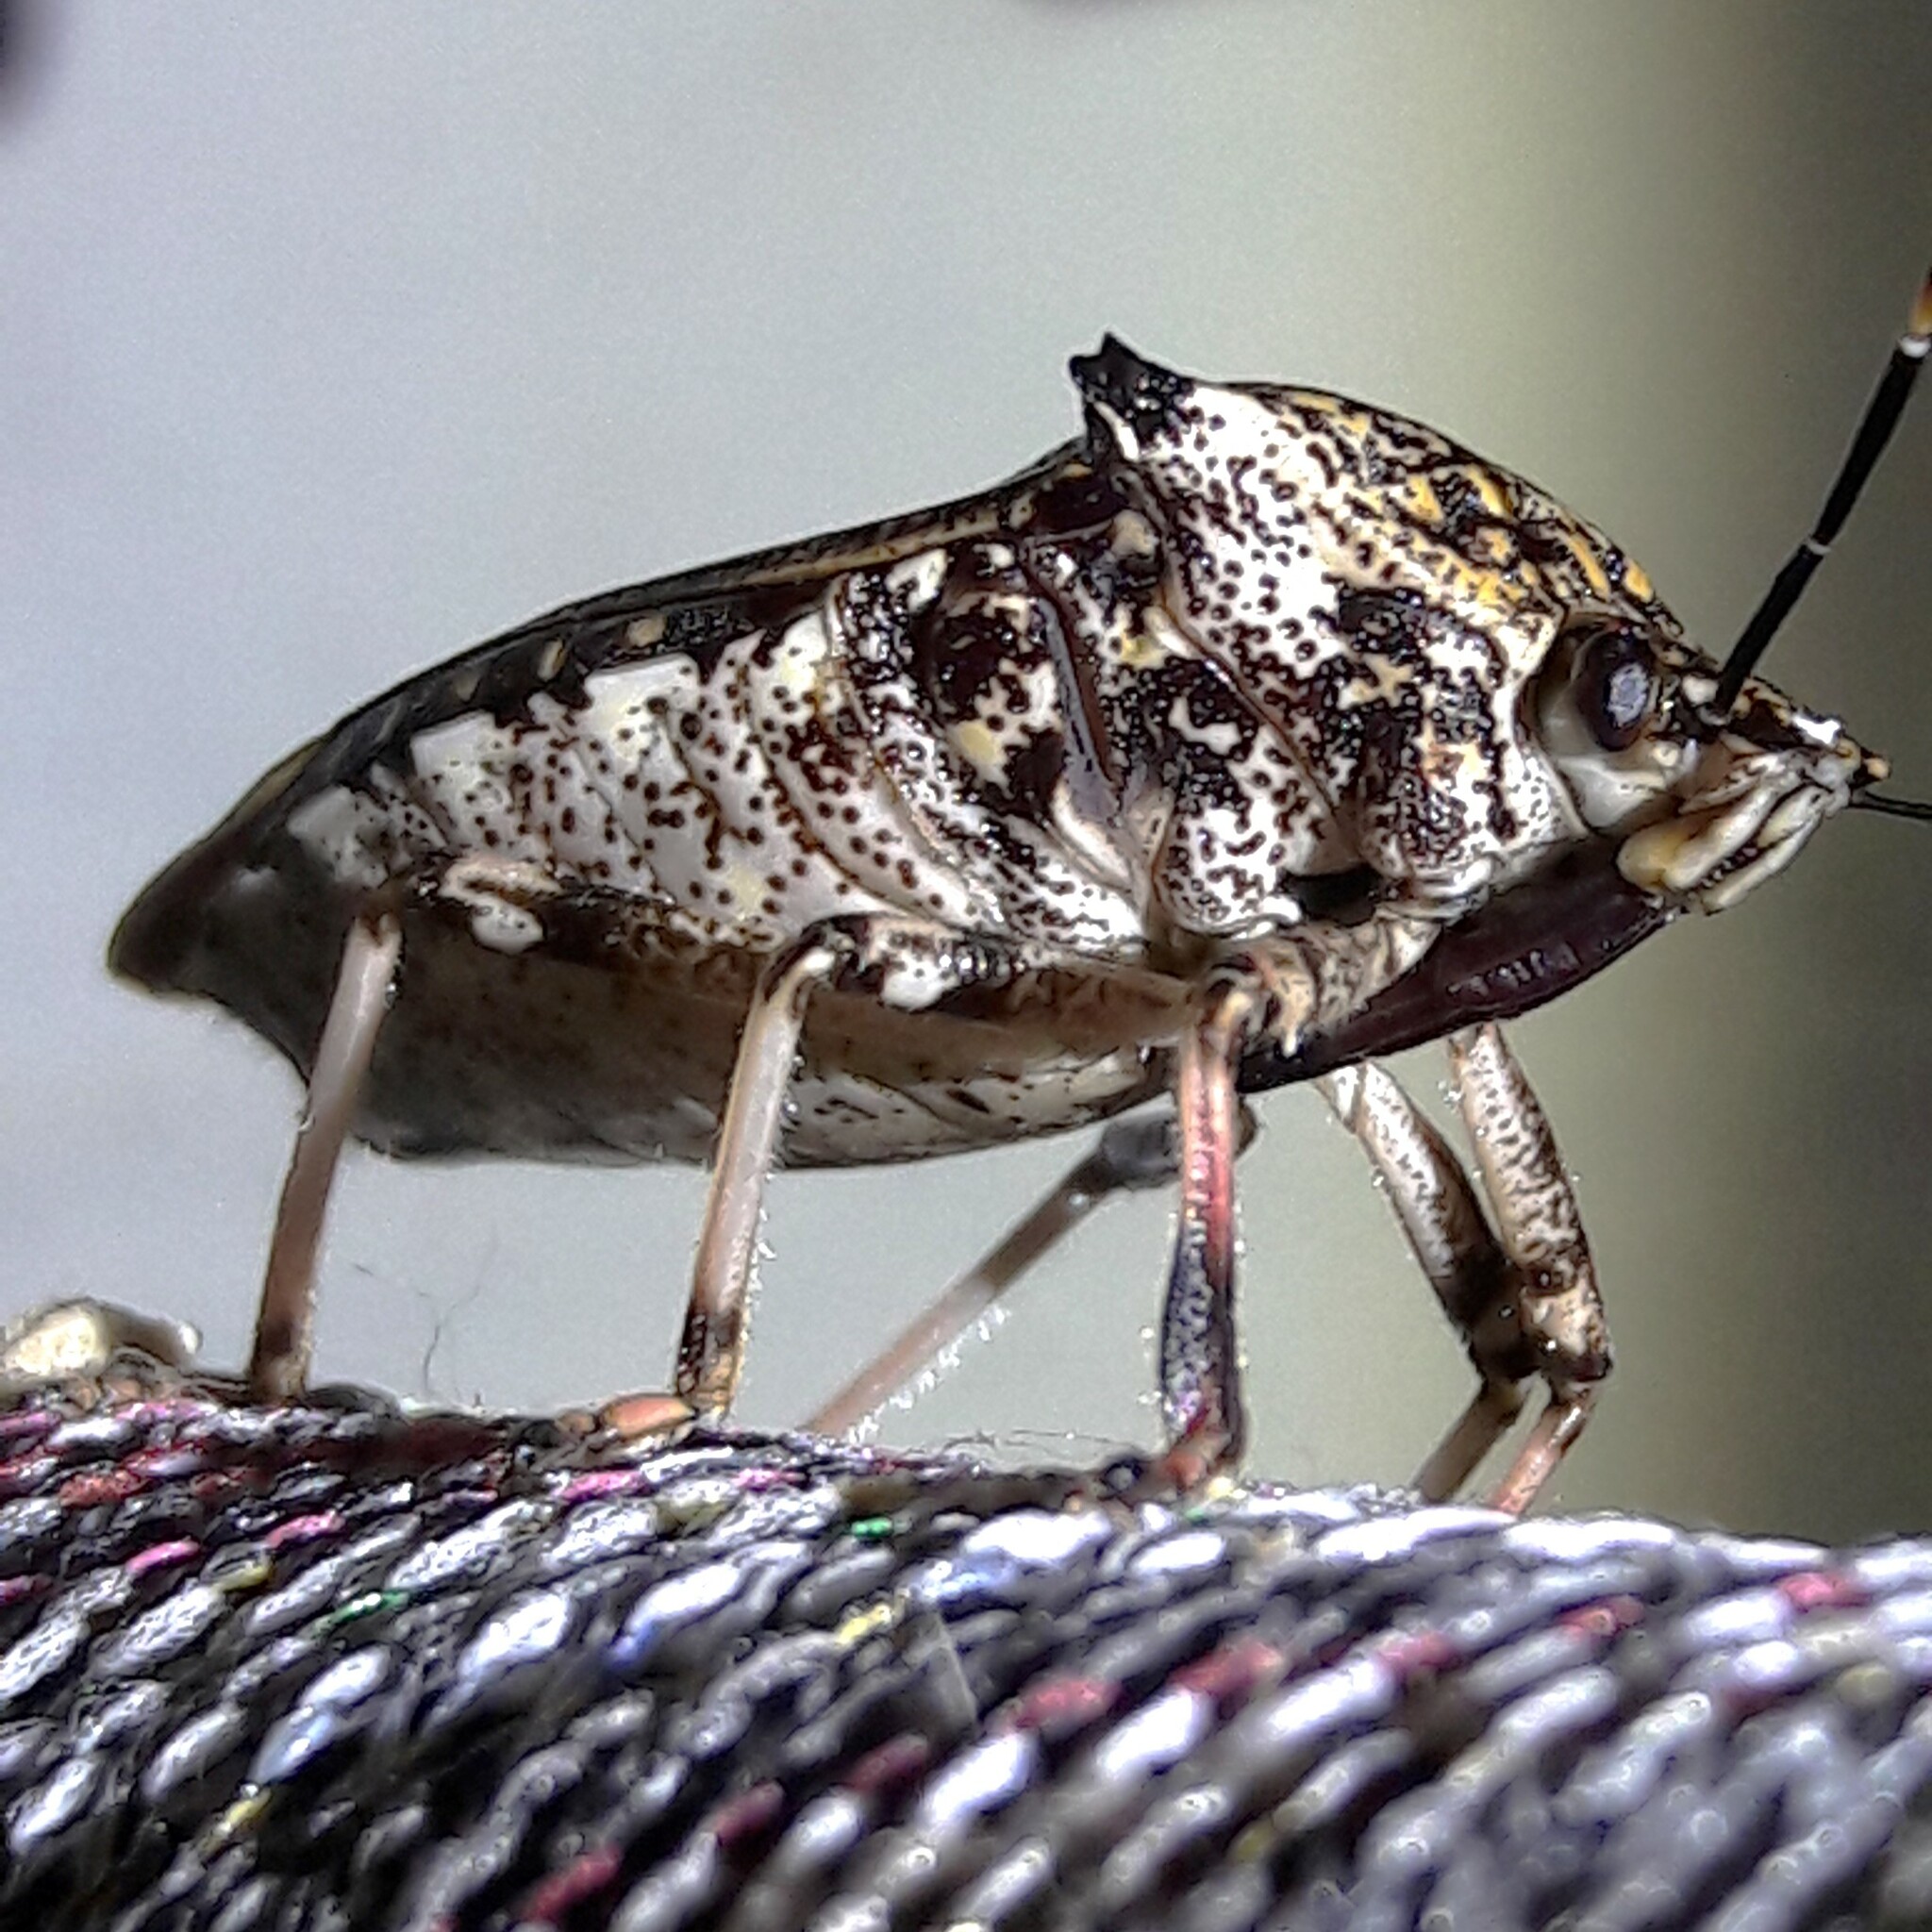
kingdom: Animalia
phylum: Arthropoda
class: Insecta
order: Hemiptera
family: Pentatomidae
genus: Alcaeorrhynchus
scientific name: Alcaeorrhynchus grandis
